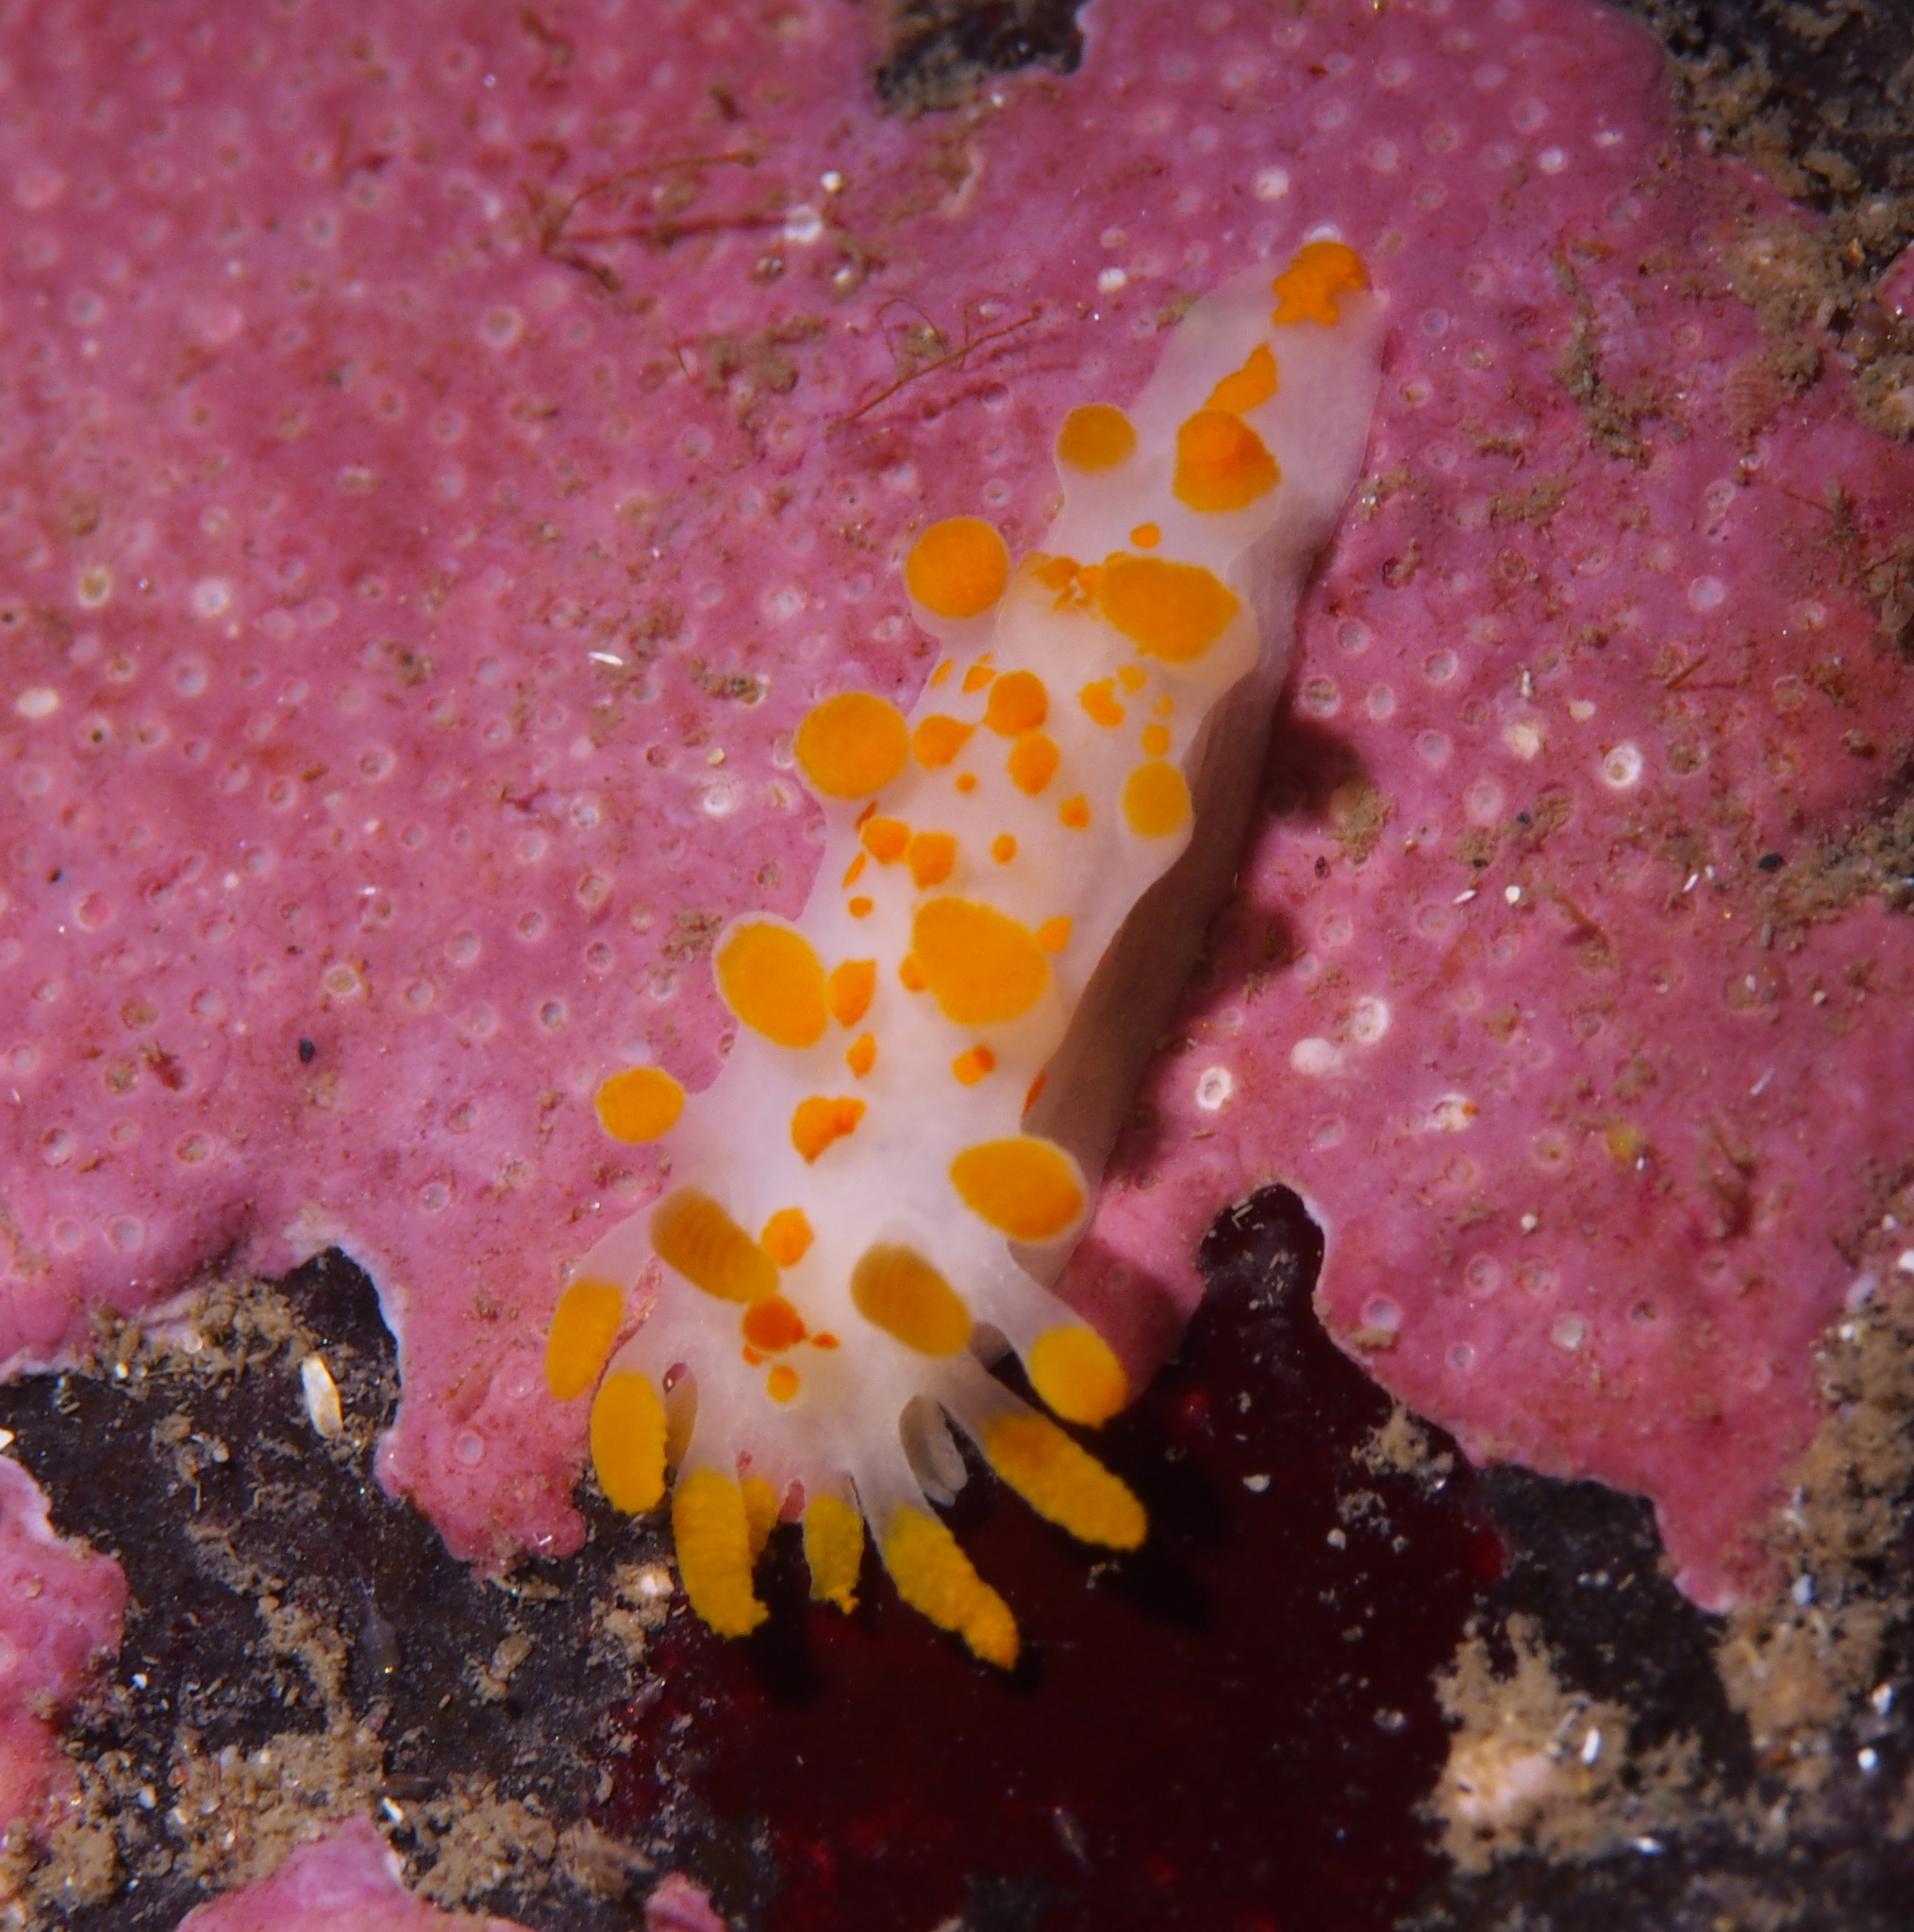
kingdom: Animalia
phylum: Mollusca
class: Gastropoda
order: Nudibranchia
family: Polyceridae
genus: Limacia
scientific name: Limacia clavigera
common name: Orange-clubbed sea slug
